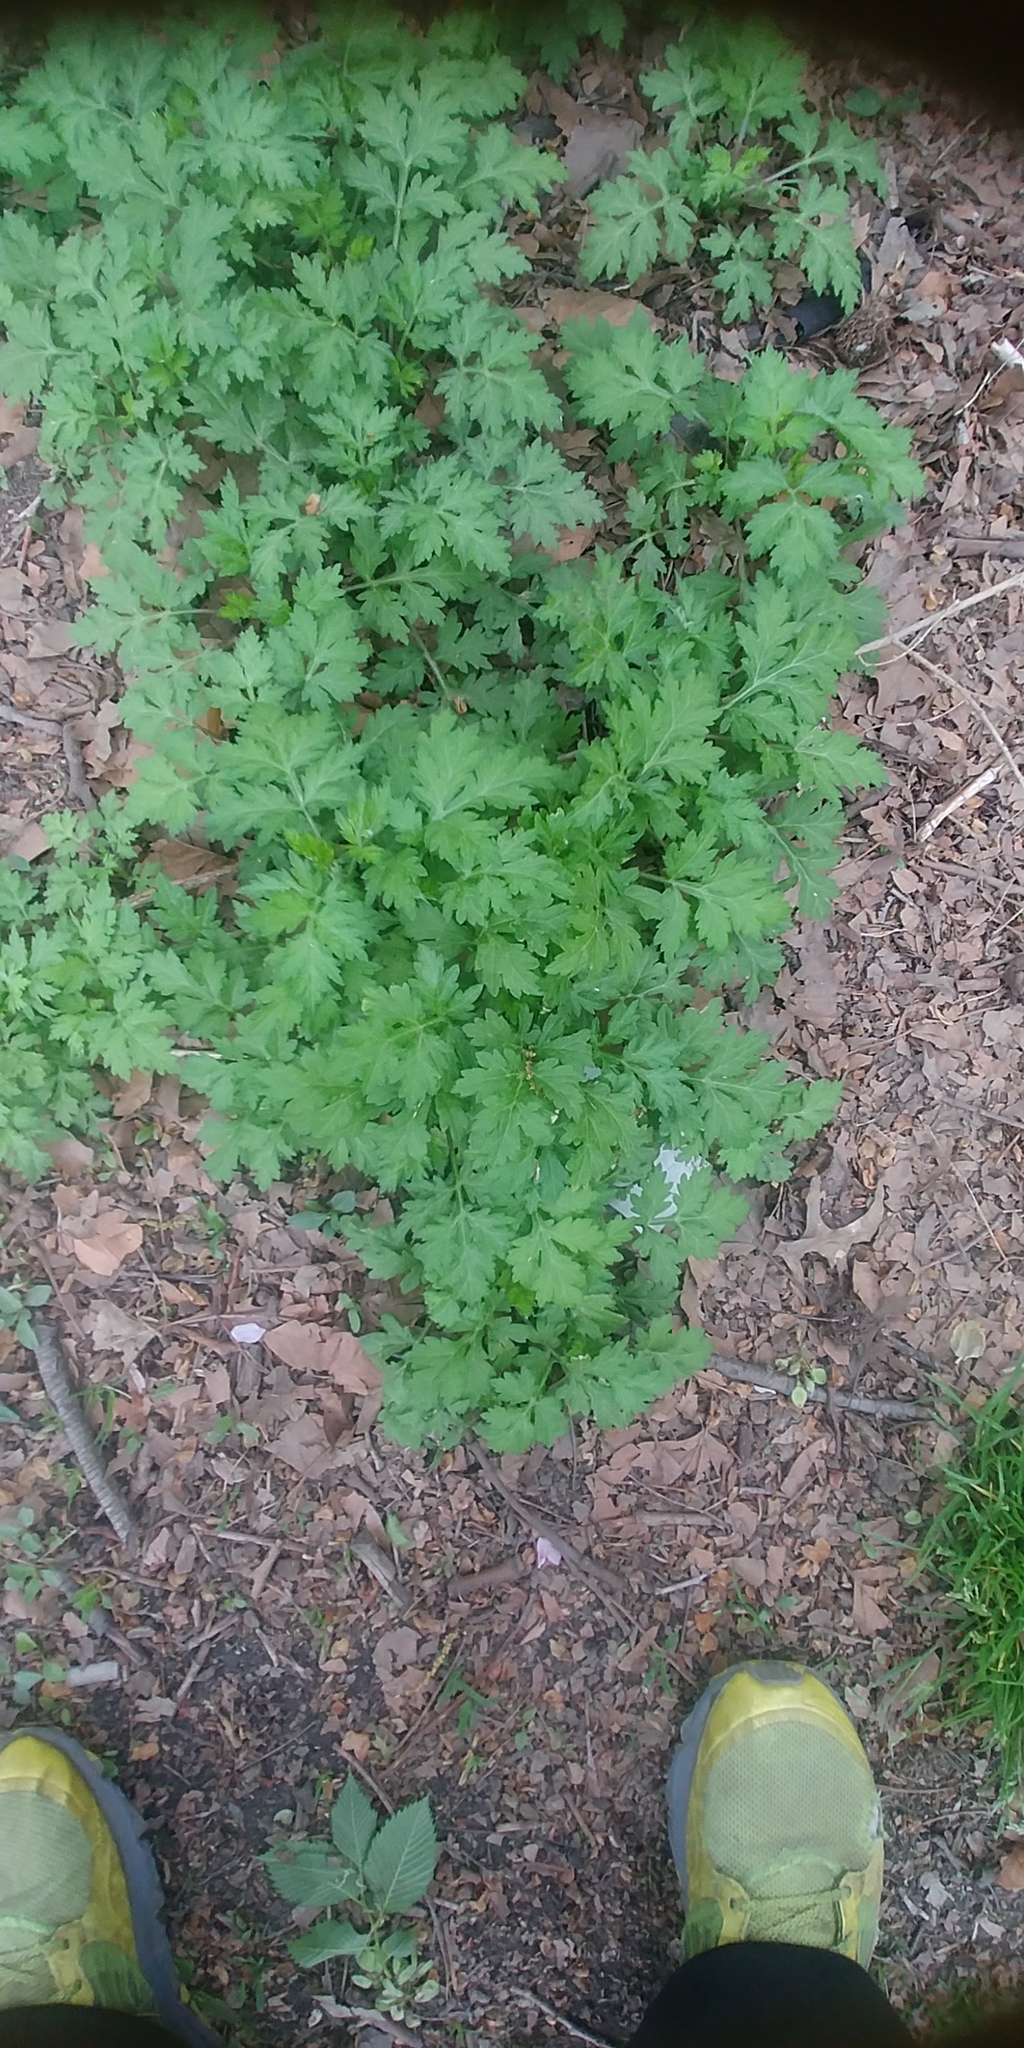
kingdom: Plantae
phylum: Tracheophyta
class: Magnoliopsida
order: Asterales
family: Asteraceae
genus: Artemisia
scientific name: Artemisia vulgaris
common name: Mugwort
